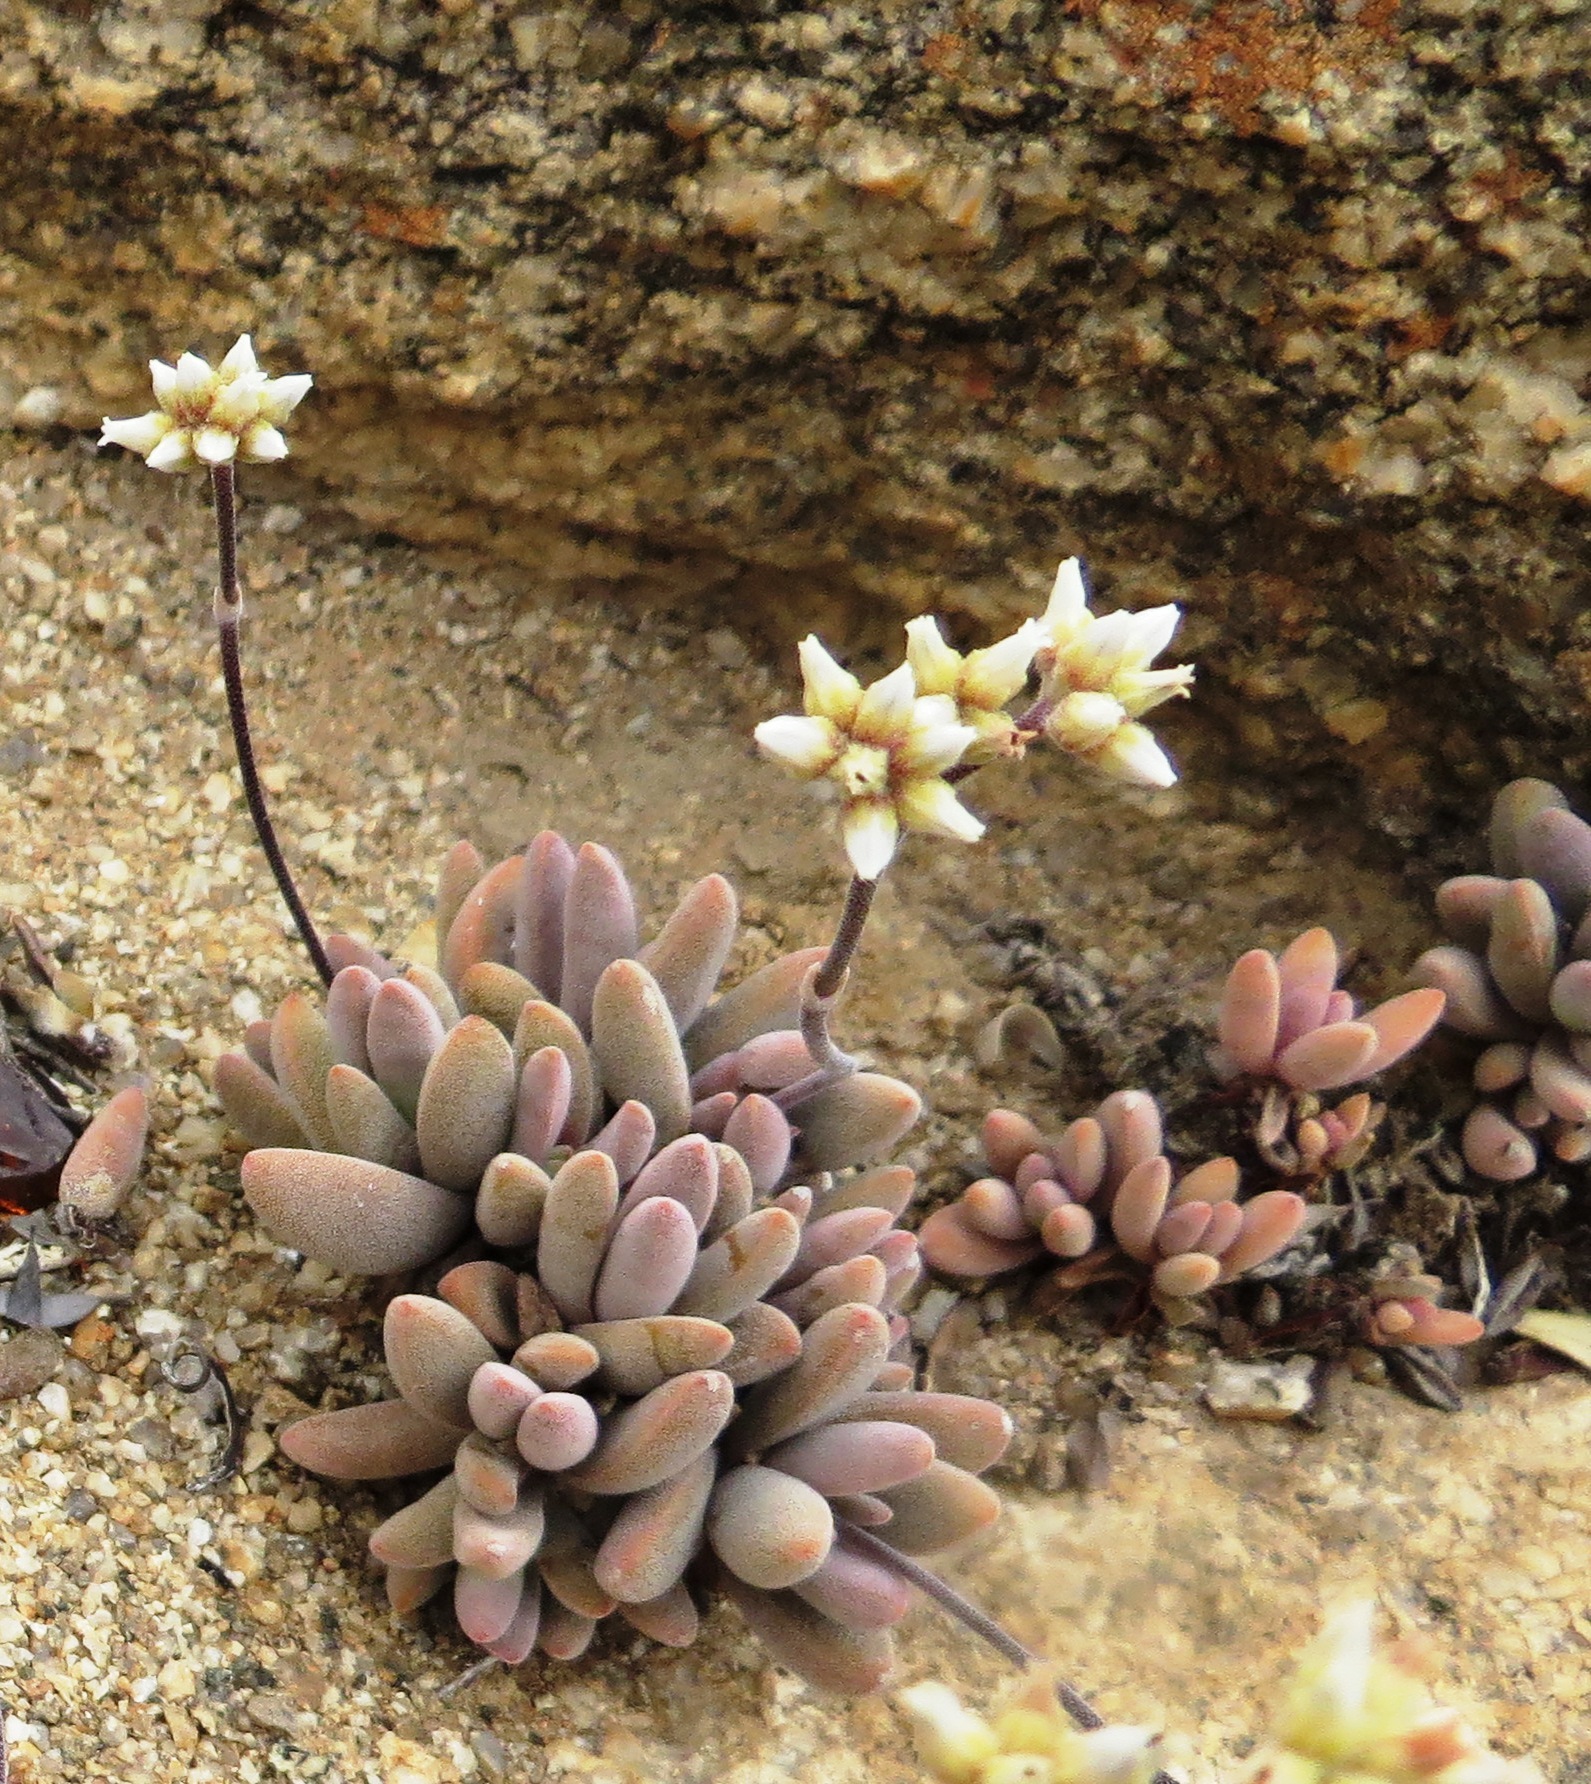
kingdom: Plantae
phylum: Tracheophyta
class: Magnoliopsida
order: Saxifragales
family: Crassulaceae
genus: Crassula
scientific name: Crassula namaquensis
